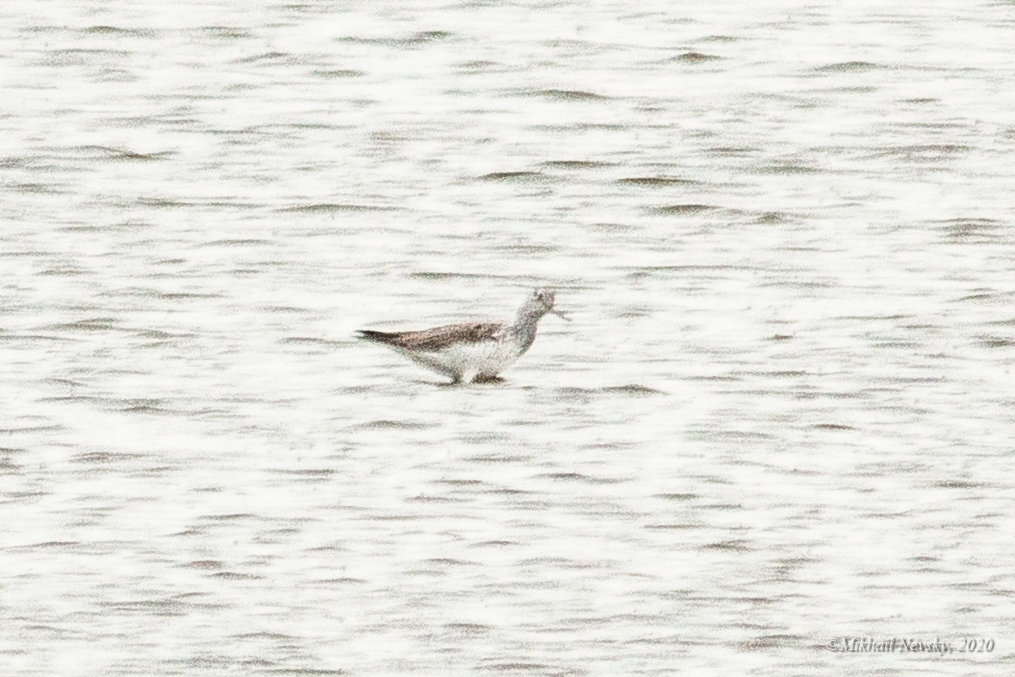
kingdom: Animalia
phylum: Chordata
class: Aves
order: Charadriiformes
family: Scolopacidae
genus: Tringa
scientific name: Tringa nebularia
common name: Common greenshank
